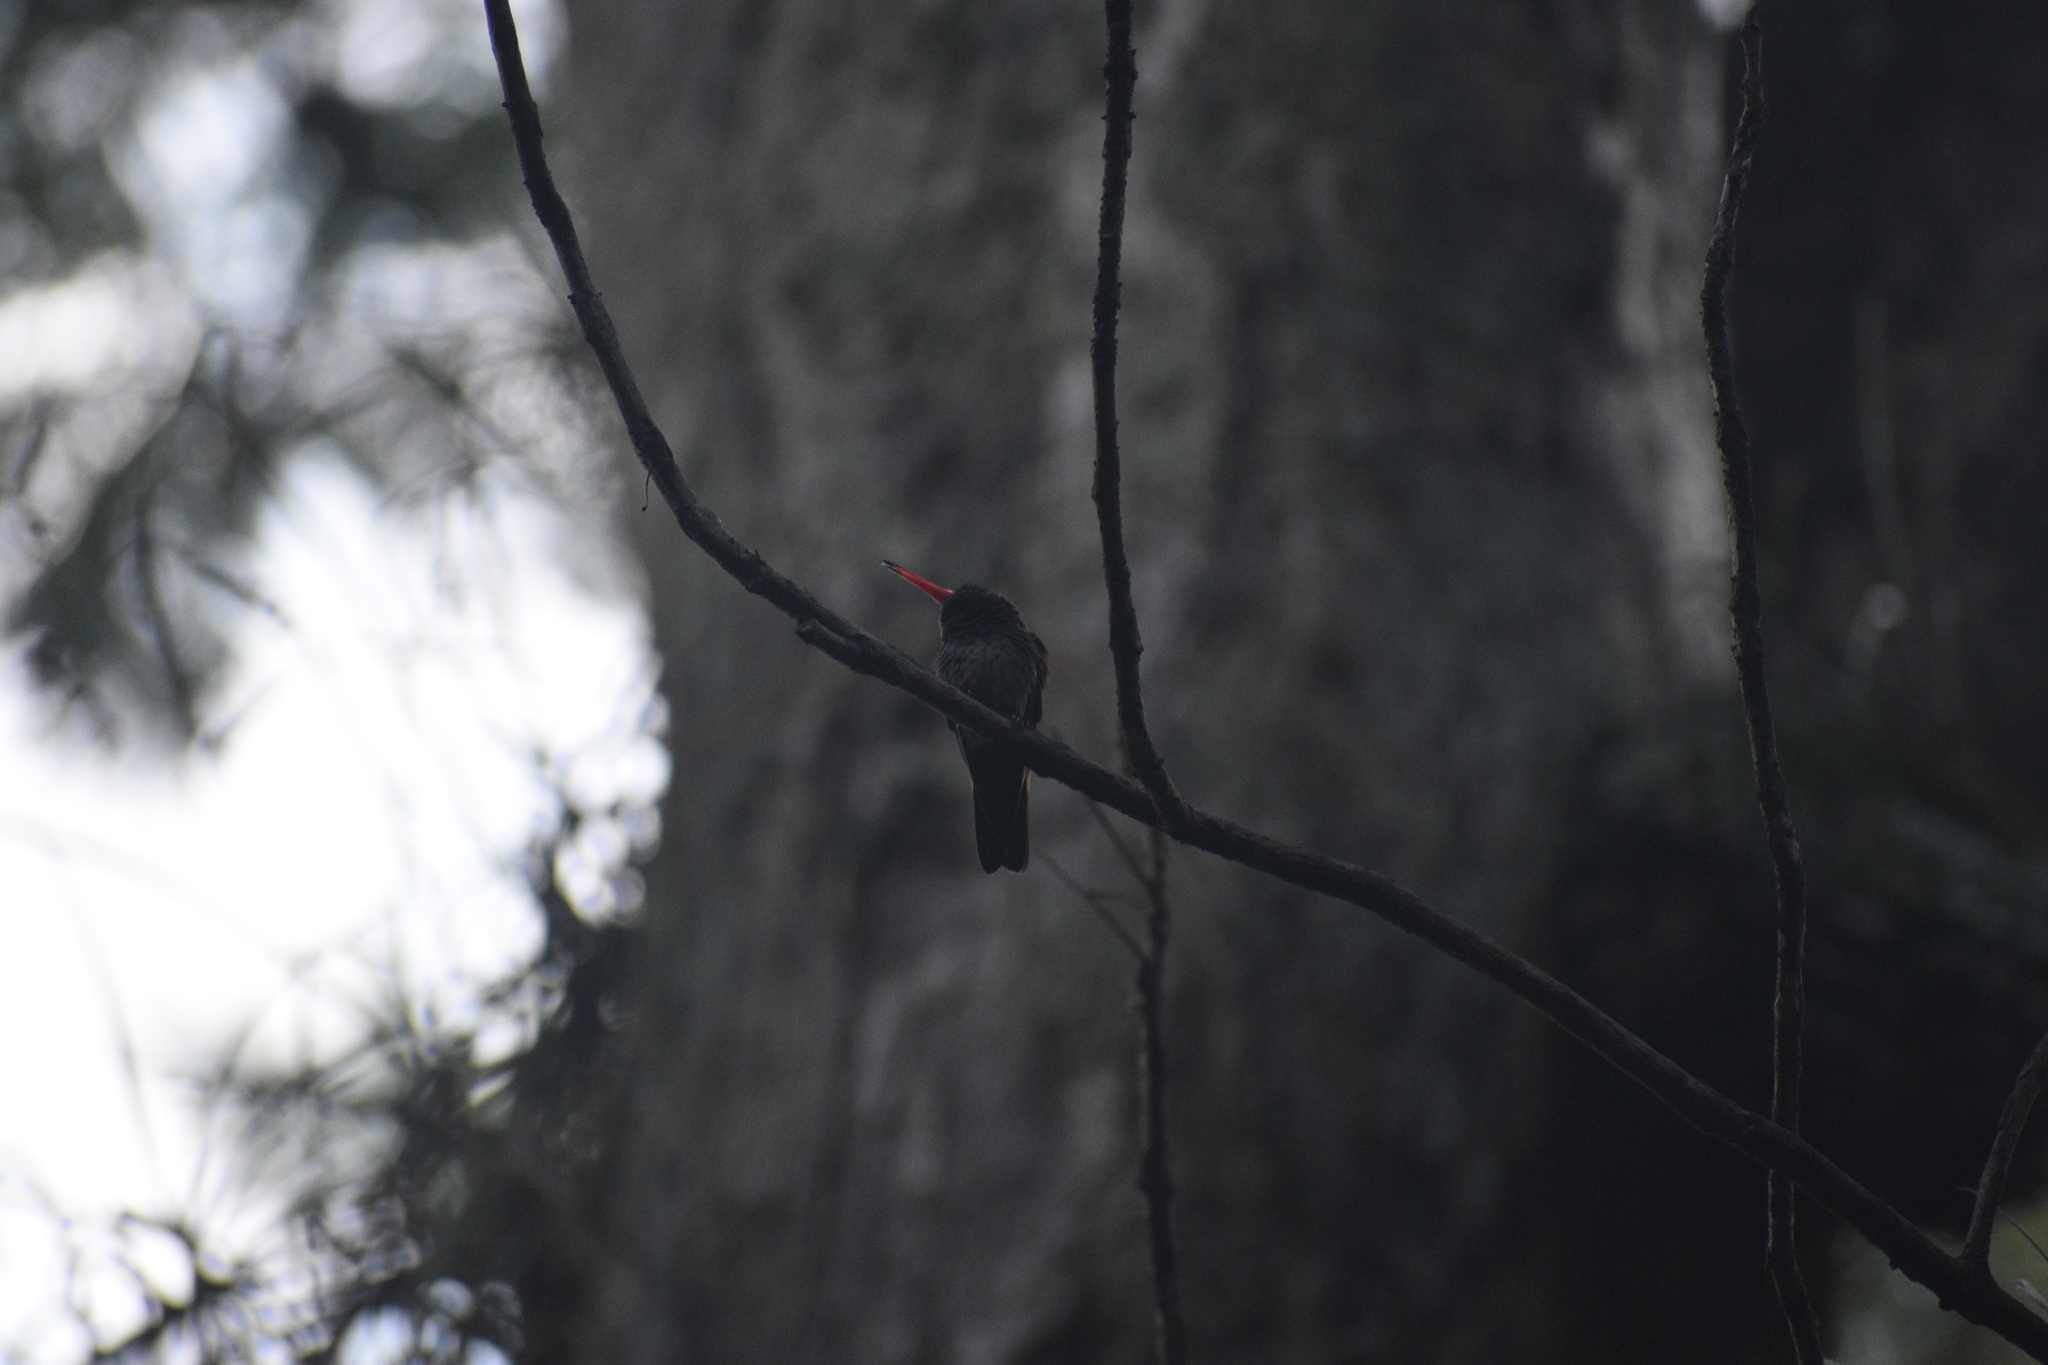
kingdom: Animalia
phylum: Chordata
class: Aves
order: Apodiformes
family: Trochilidae
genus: Amazilia
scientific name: Amazilia tzacatl
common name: Rufous-tailed hummingbird
